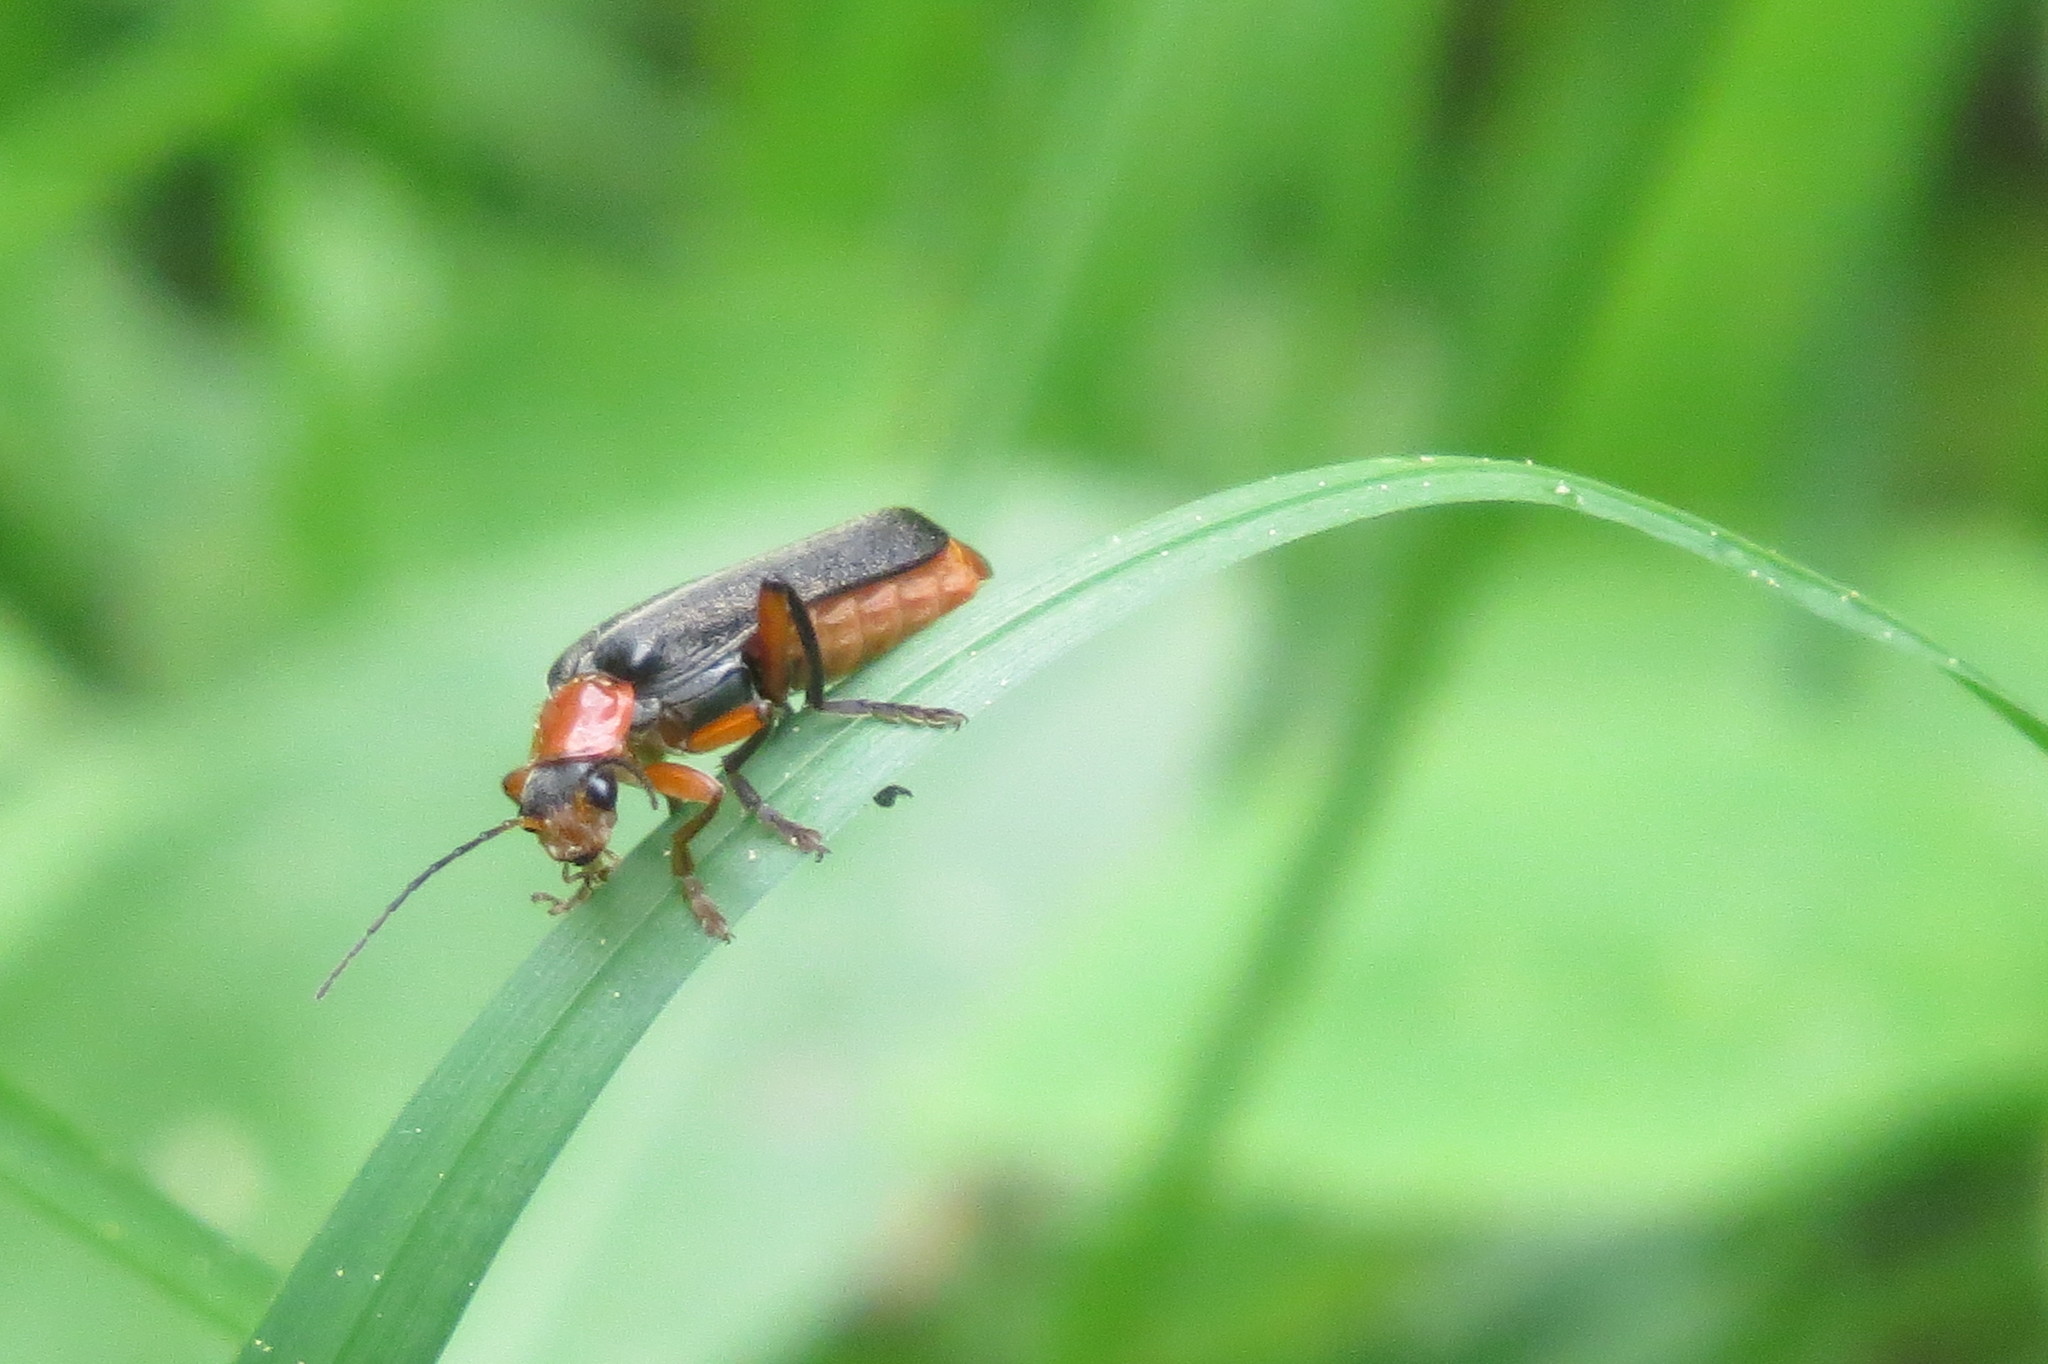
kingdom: Animalia
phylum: Arthropoda
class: Insecta
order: Coleoptera
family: Cantharidae
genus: Cantharis
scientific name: Cantharis pellucida
